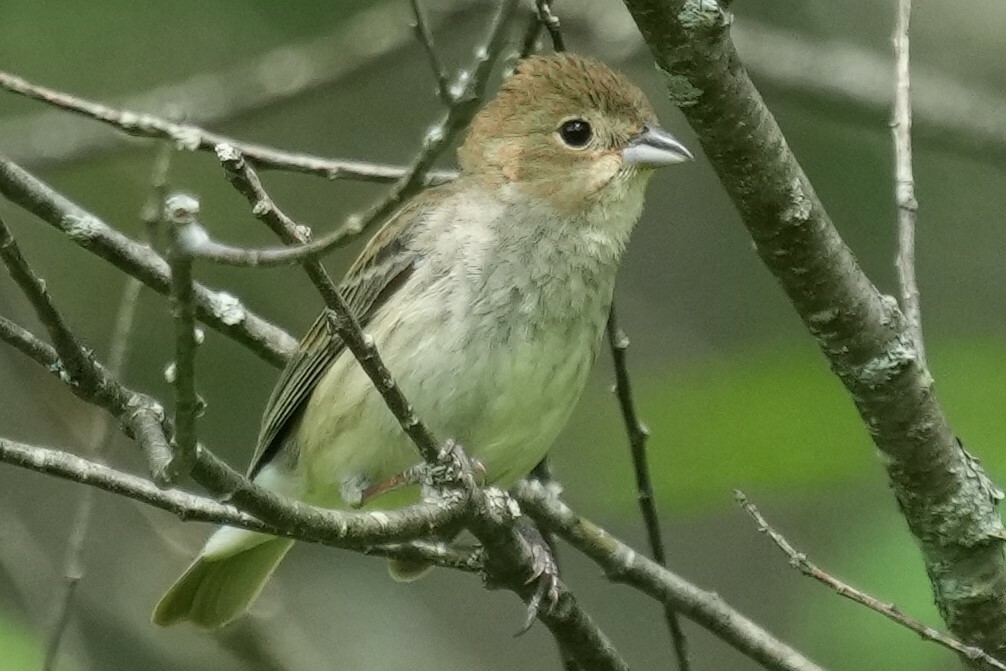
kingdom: Animalia
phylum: Chordata
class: Aves
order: Passeriformes
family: Cardinalidae
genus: Passerina
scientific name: Passerina cyanea
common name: Indigo bunting
